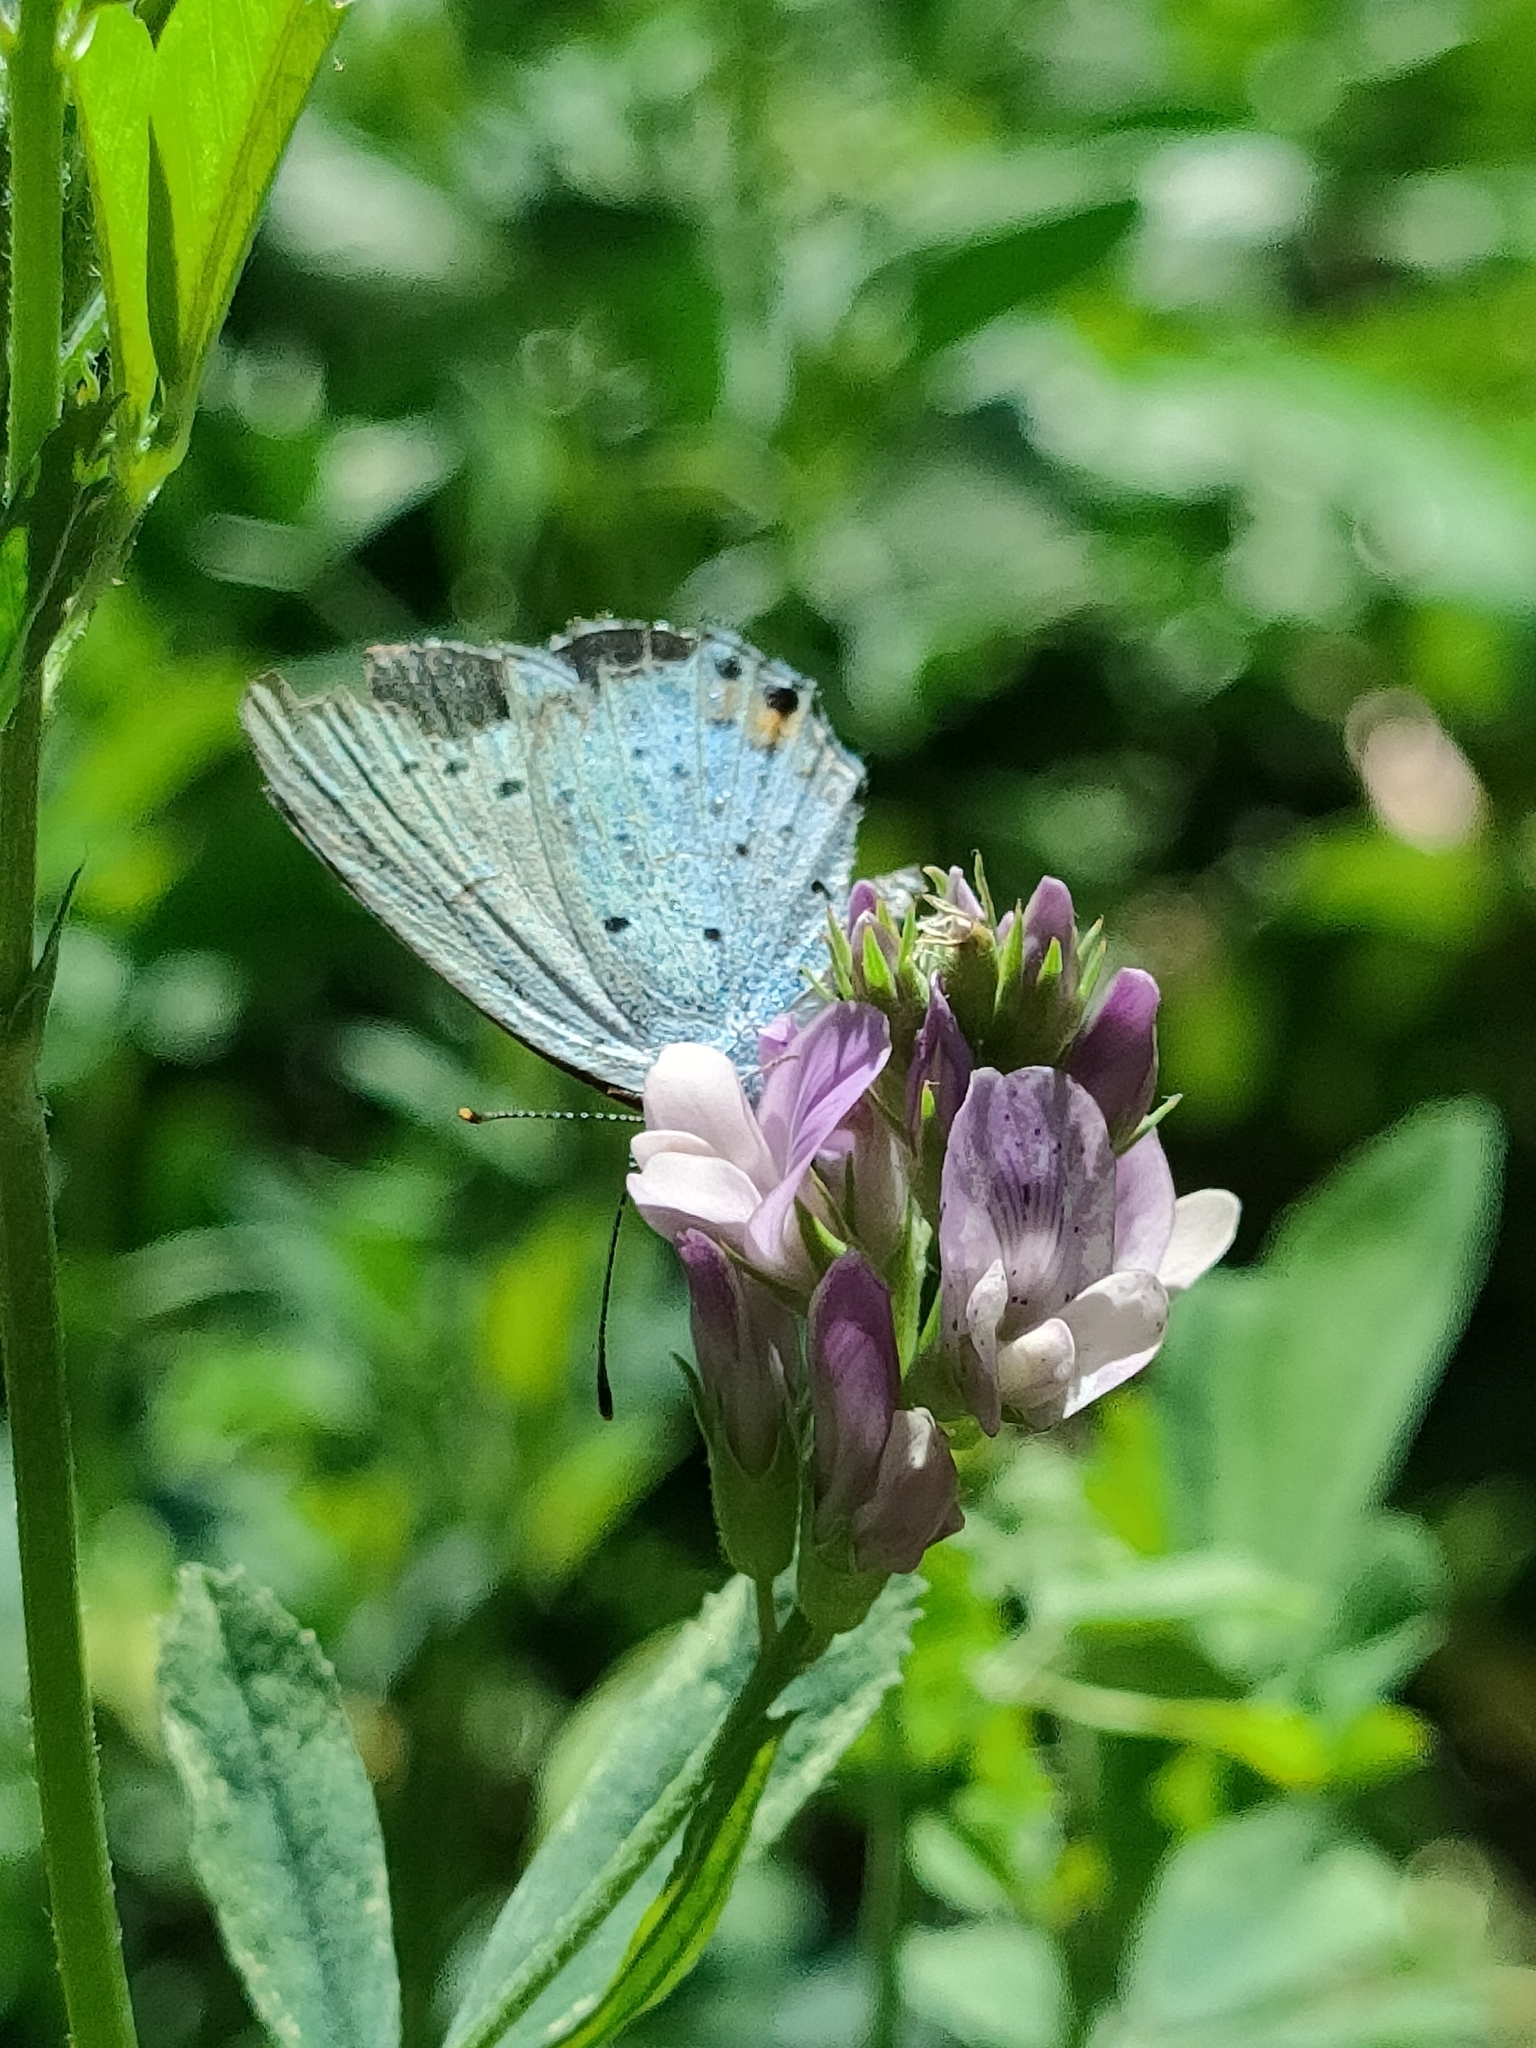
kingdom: Animalia
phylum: Arthropoda
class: Insecta
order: Lepidoptera
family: Lycaenidae
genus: Elkalyce
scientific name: Elkalyce argiades
